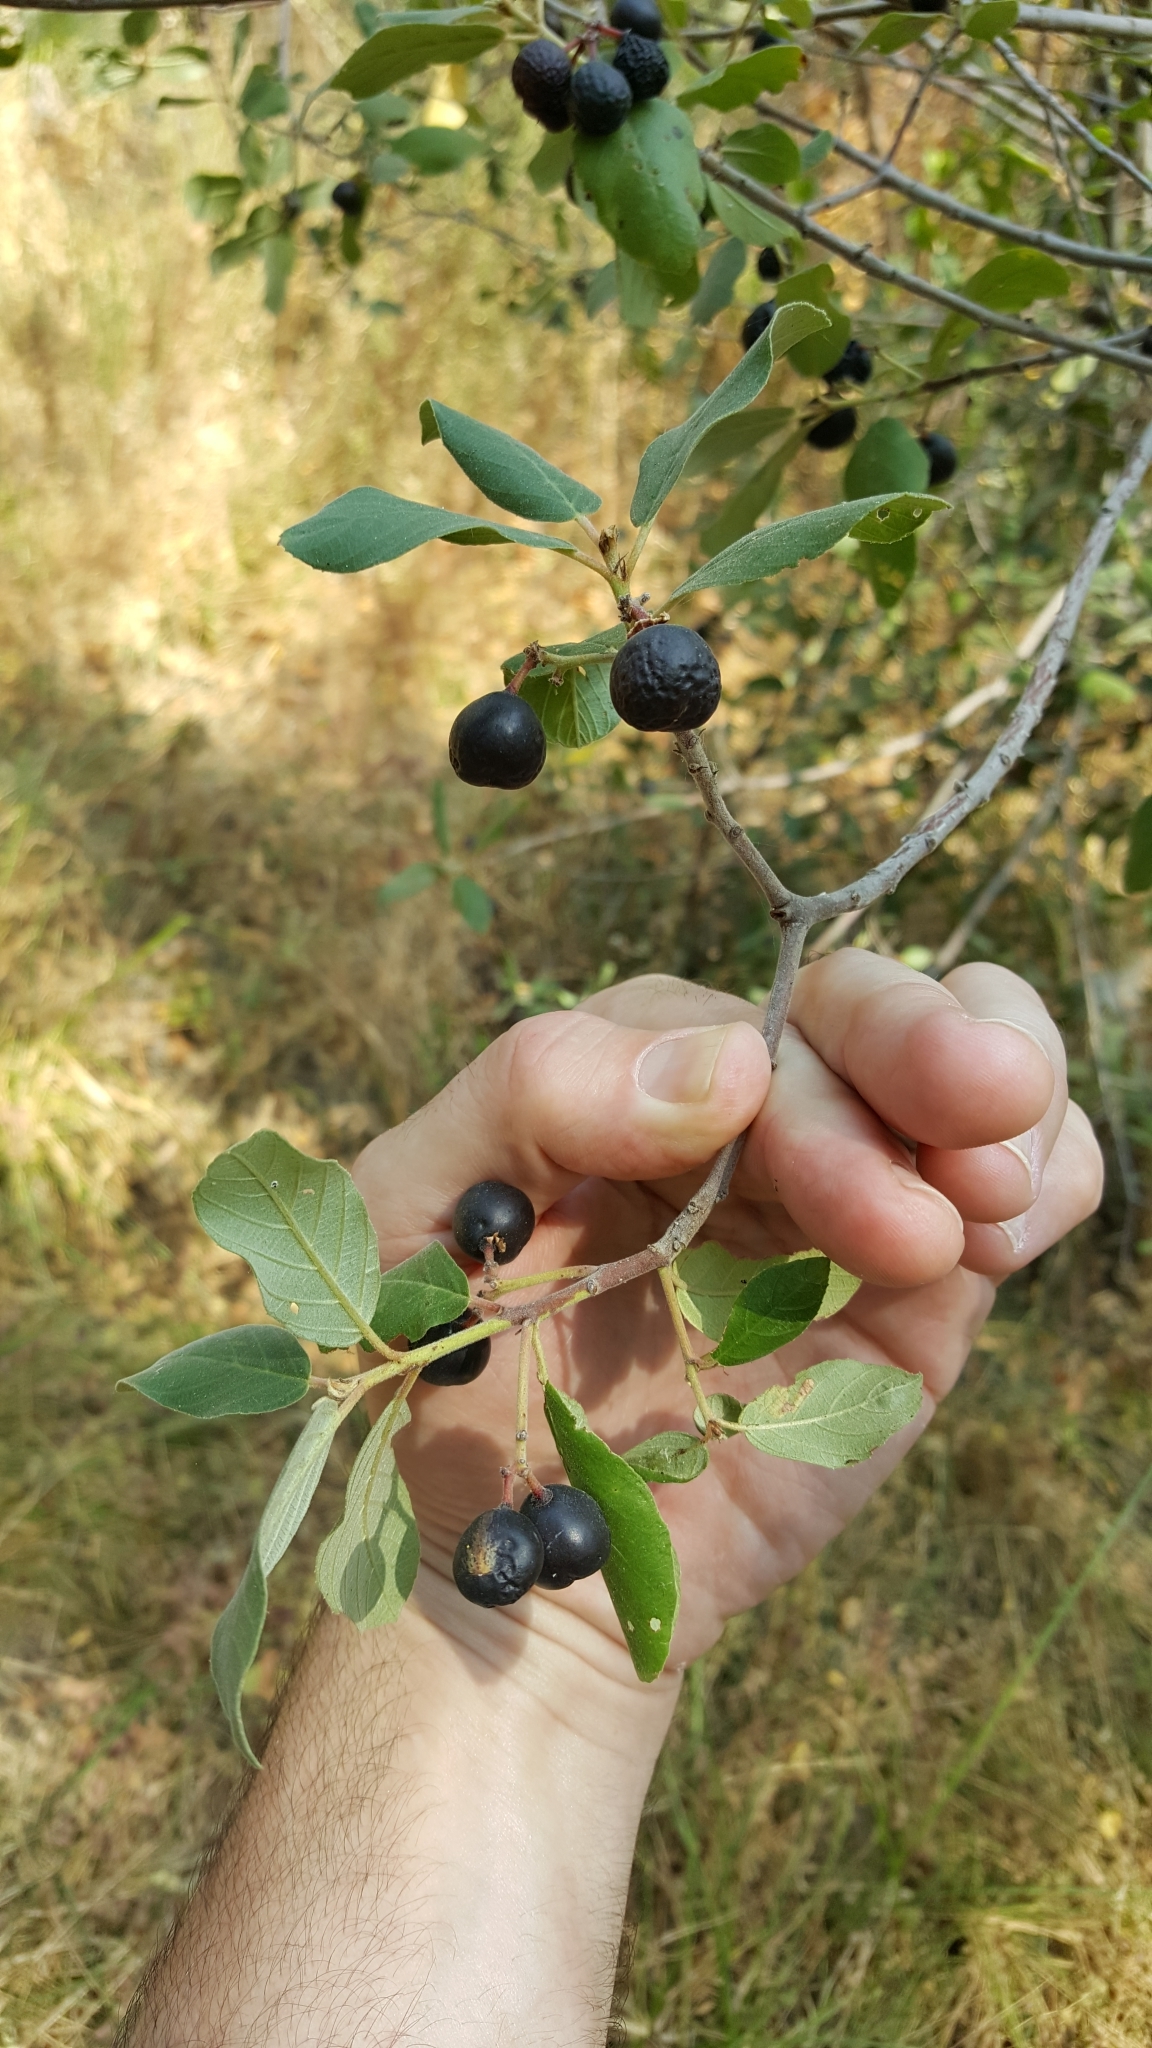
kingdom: Plantae
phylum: Tracheophyta
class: Magnoliopsida
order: Rosales
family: Rhamnaceae
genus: Frangula
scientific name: Frangula californica
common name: California buckthorn
